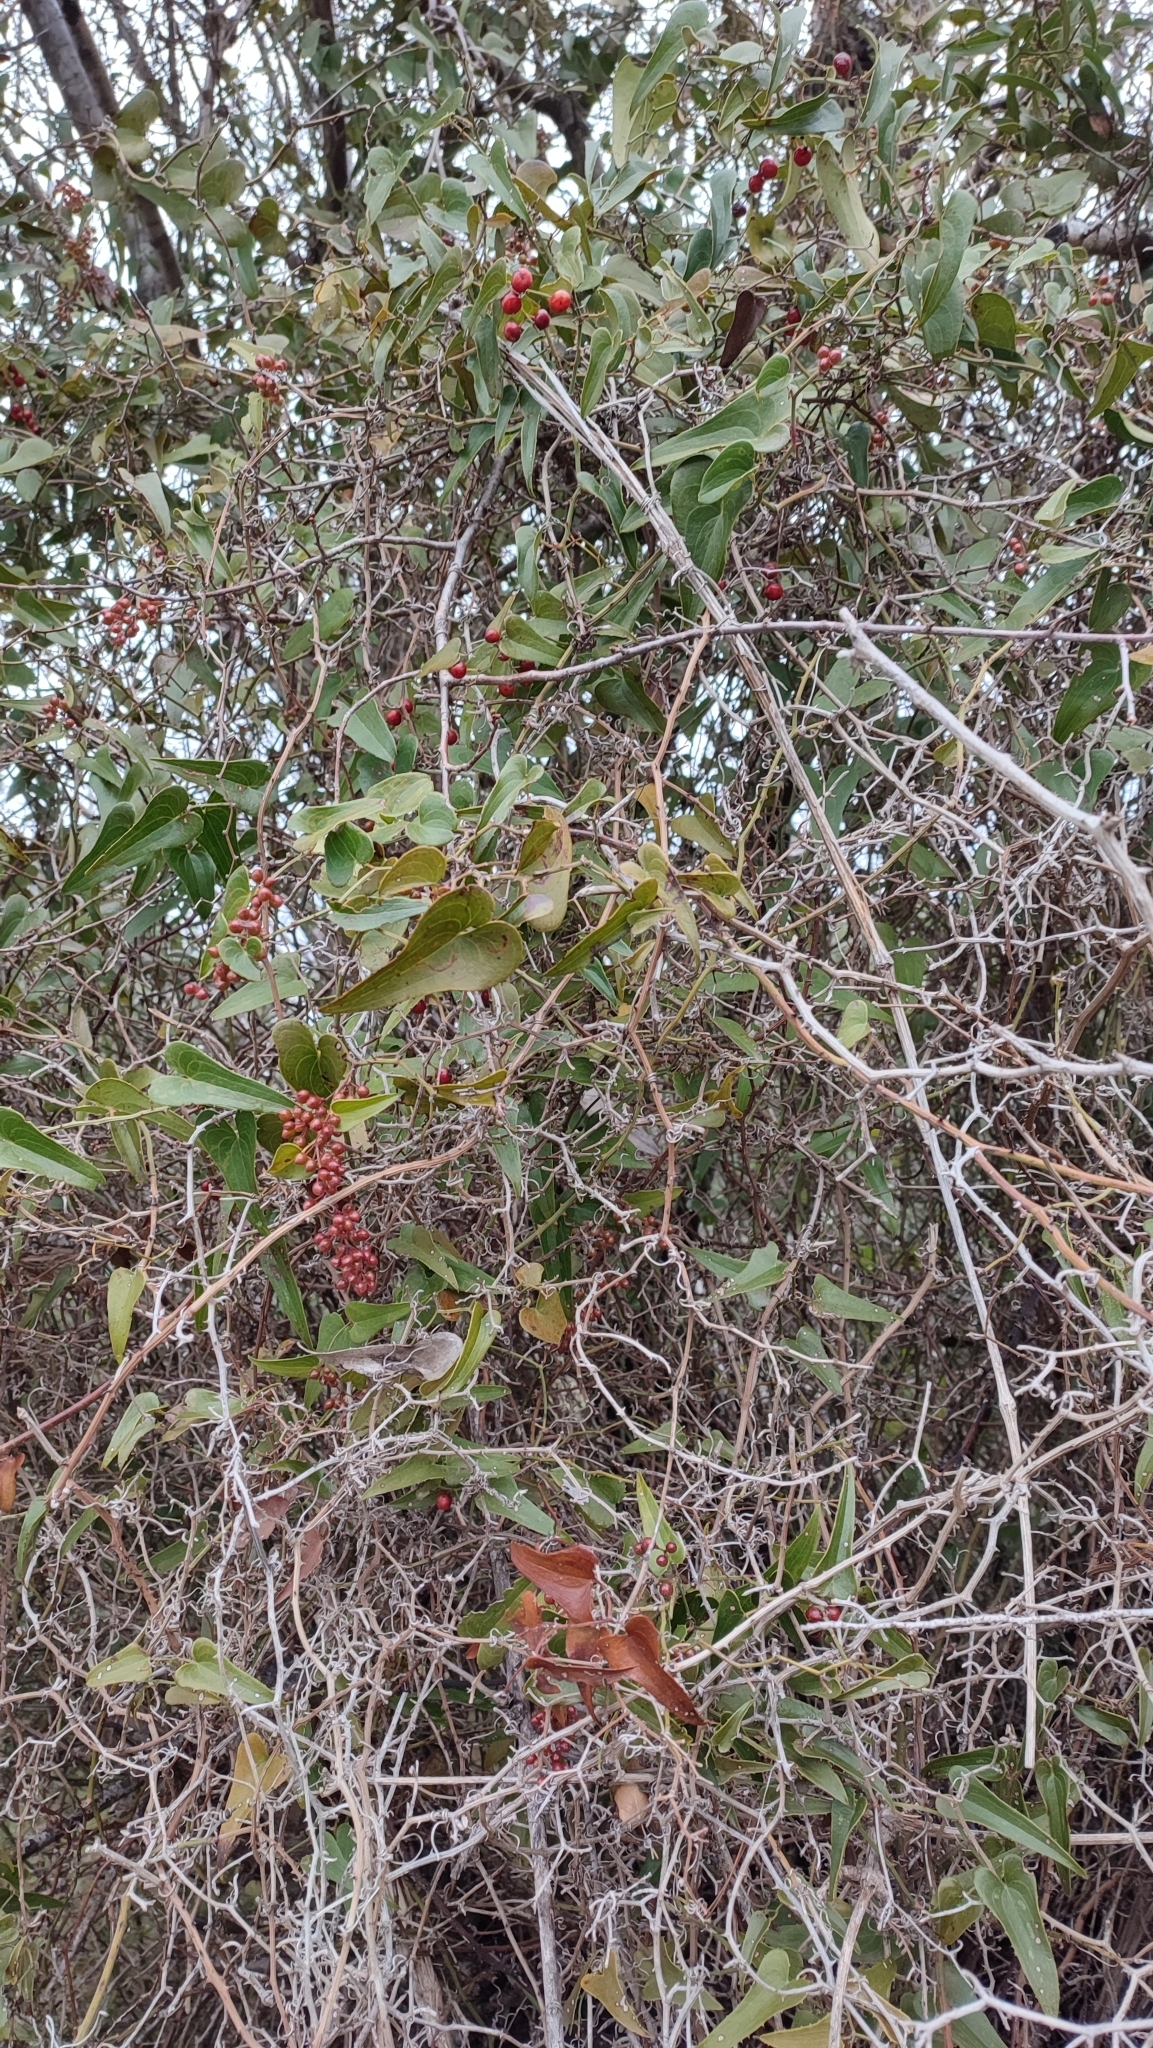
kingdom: Plantae
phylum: Tracheophyta
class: Liliopsida
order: Liliales
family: Smilacaceae
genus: Smilax
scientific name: Smilax aspera
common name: Common smilax
